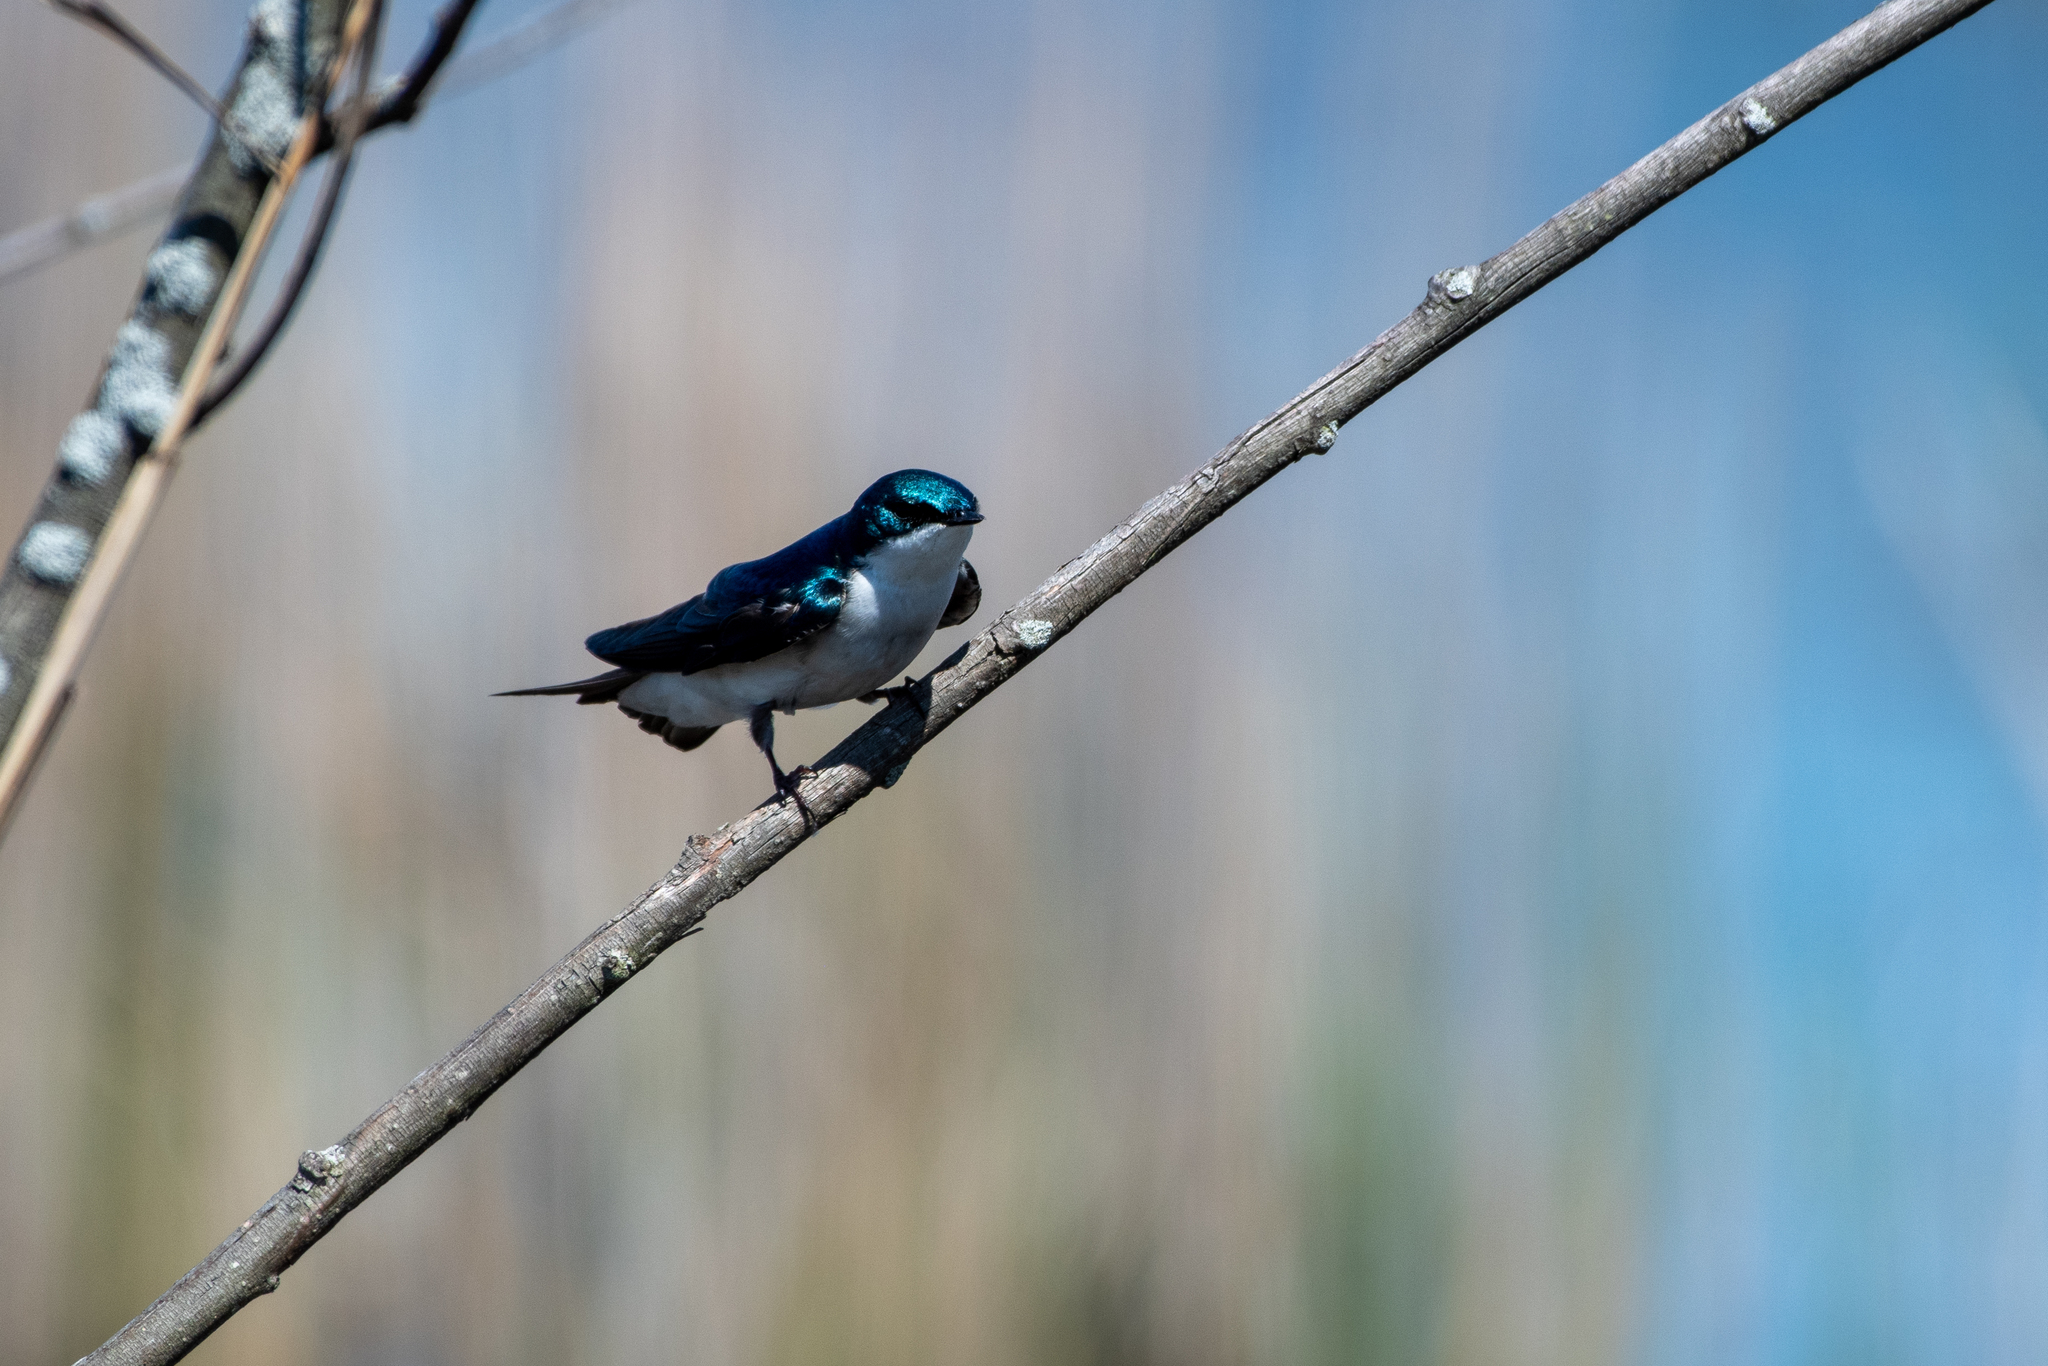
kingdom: Animalia
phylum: Chordata
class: Aves
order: Passeriformes
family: Hirundinidae
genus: Tachycineta
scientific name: Tachycineta bicolor
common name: Tree swallow
